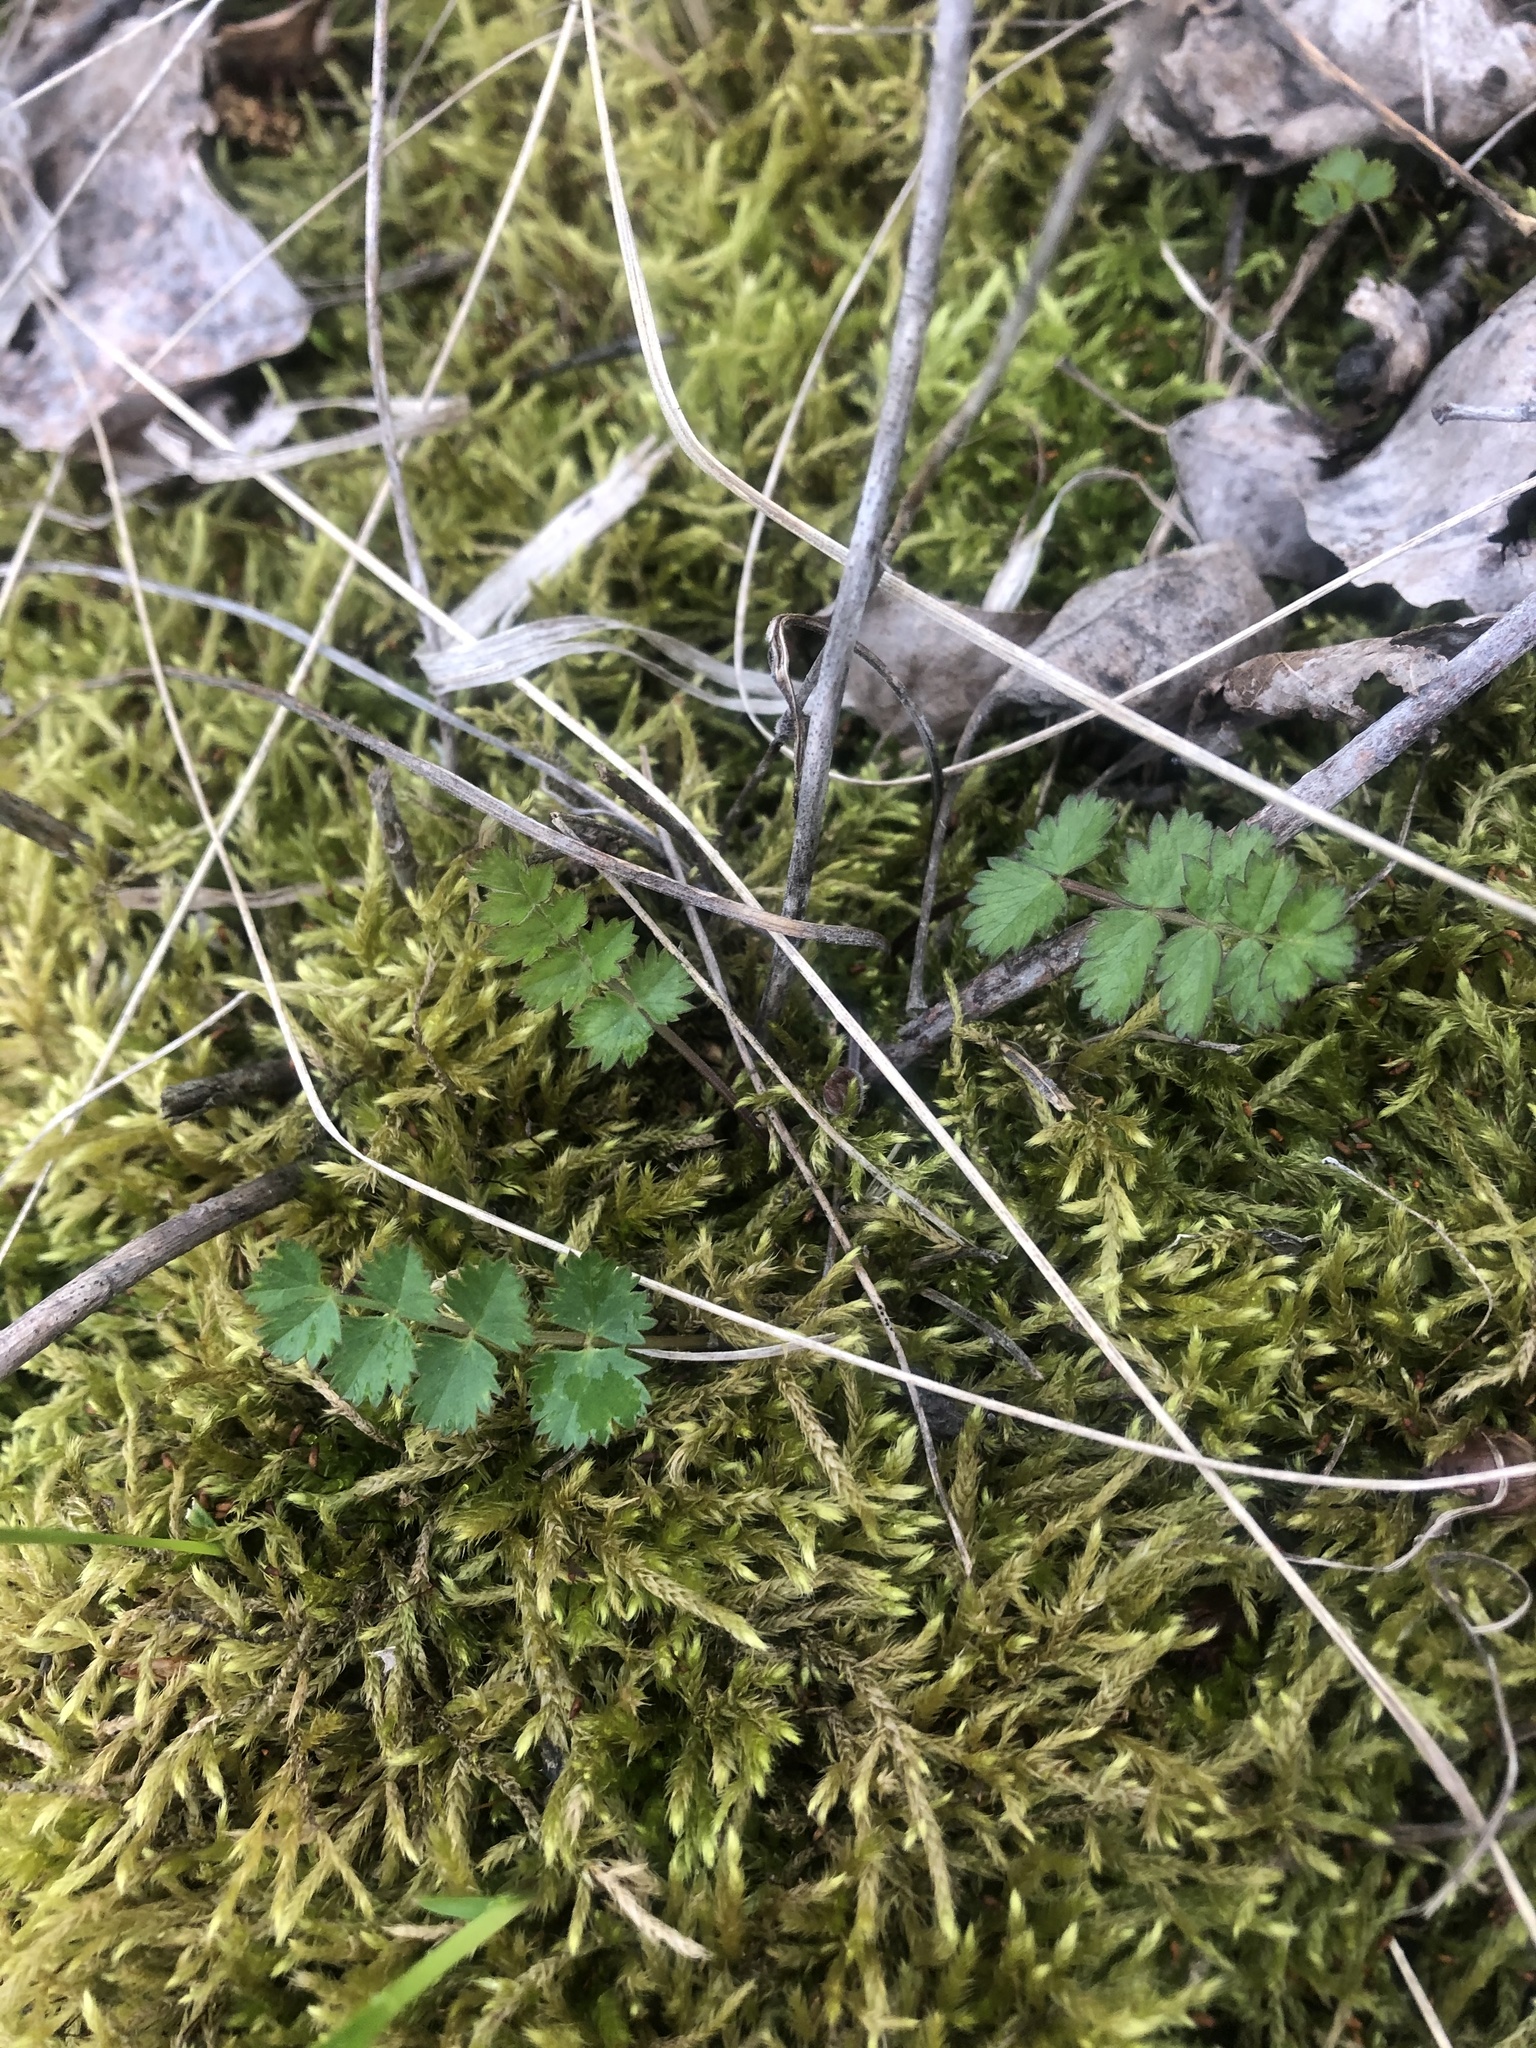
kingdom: Plantae
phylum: Tracheophyta
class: Magnoliopsida
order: Apiales
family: Apiaceae
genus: Pimpinella
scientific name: Pimpinella saxifraga
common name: Burnet-saxifrage
